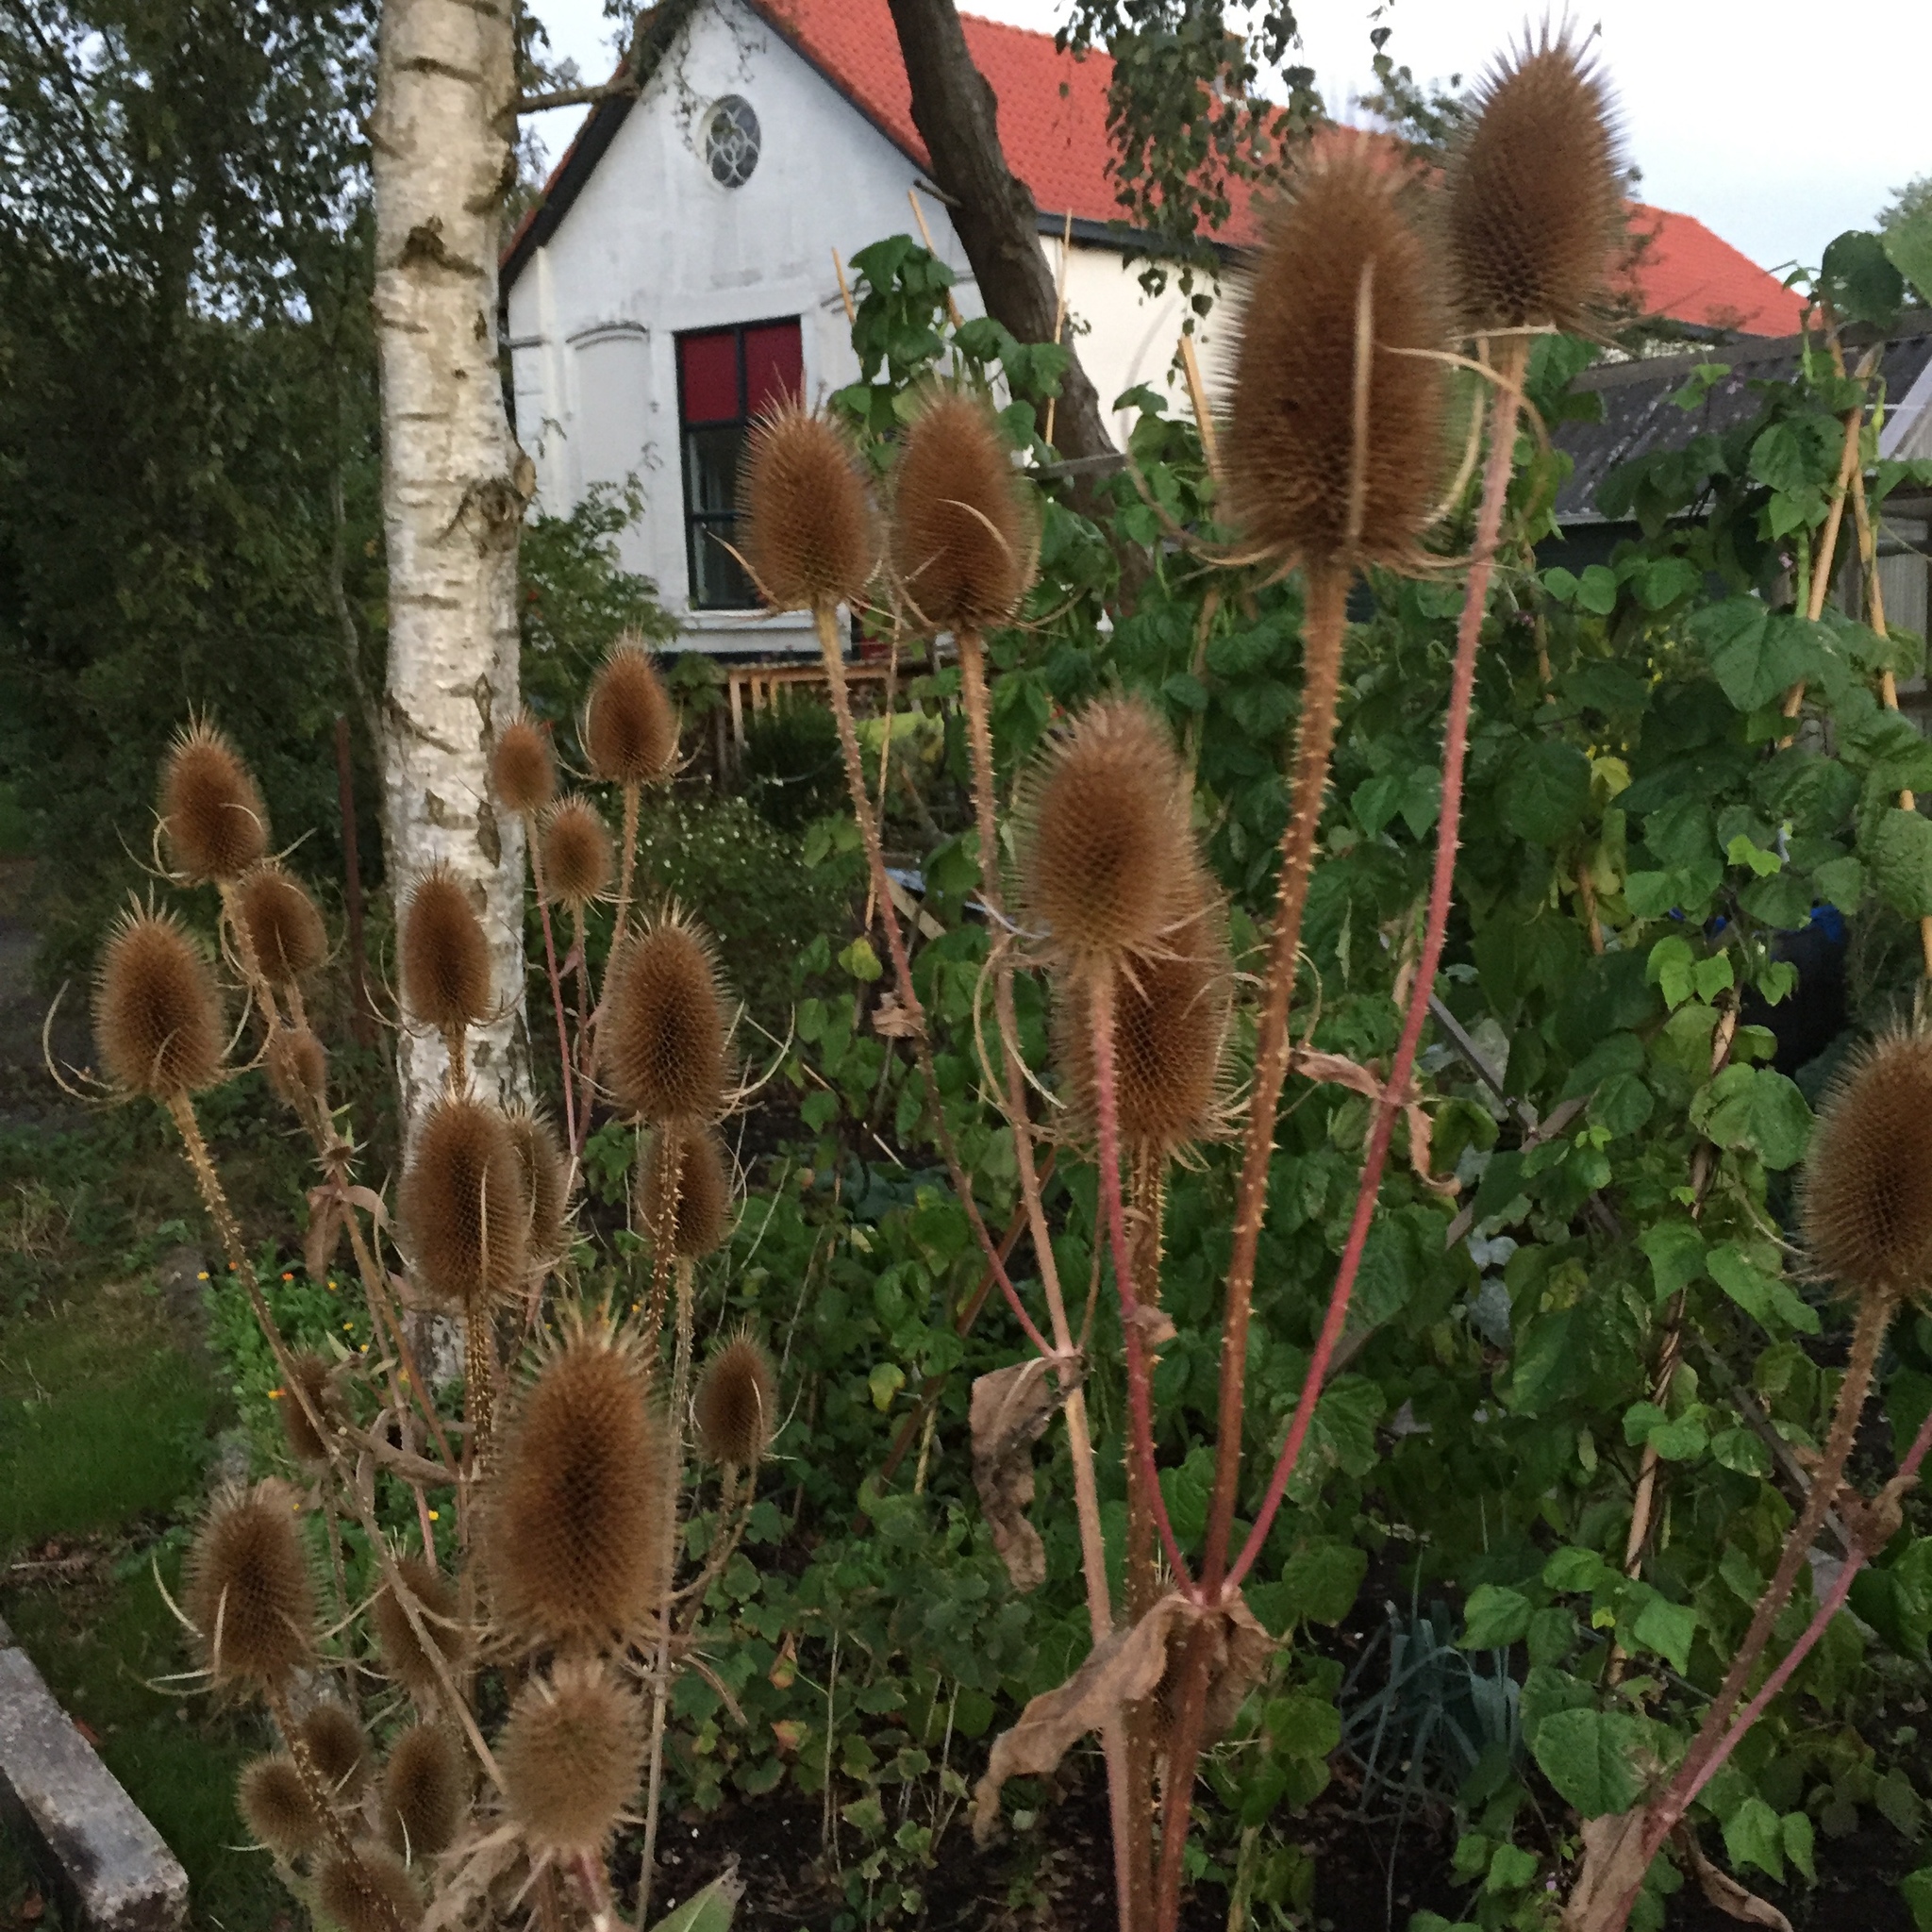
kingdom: Plantae
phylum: Tracheophyta
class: Magnoliopsida
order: Dipsacales
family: Caprifoliaceae
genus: Dipsacus
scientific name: Dipsacus fullonum
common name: Teasel
